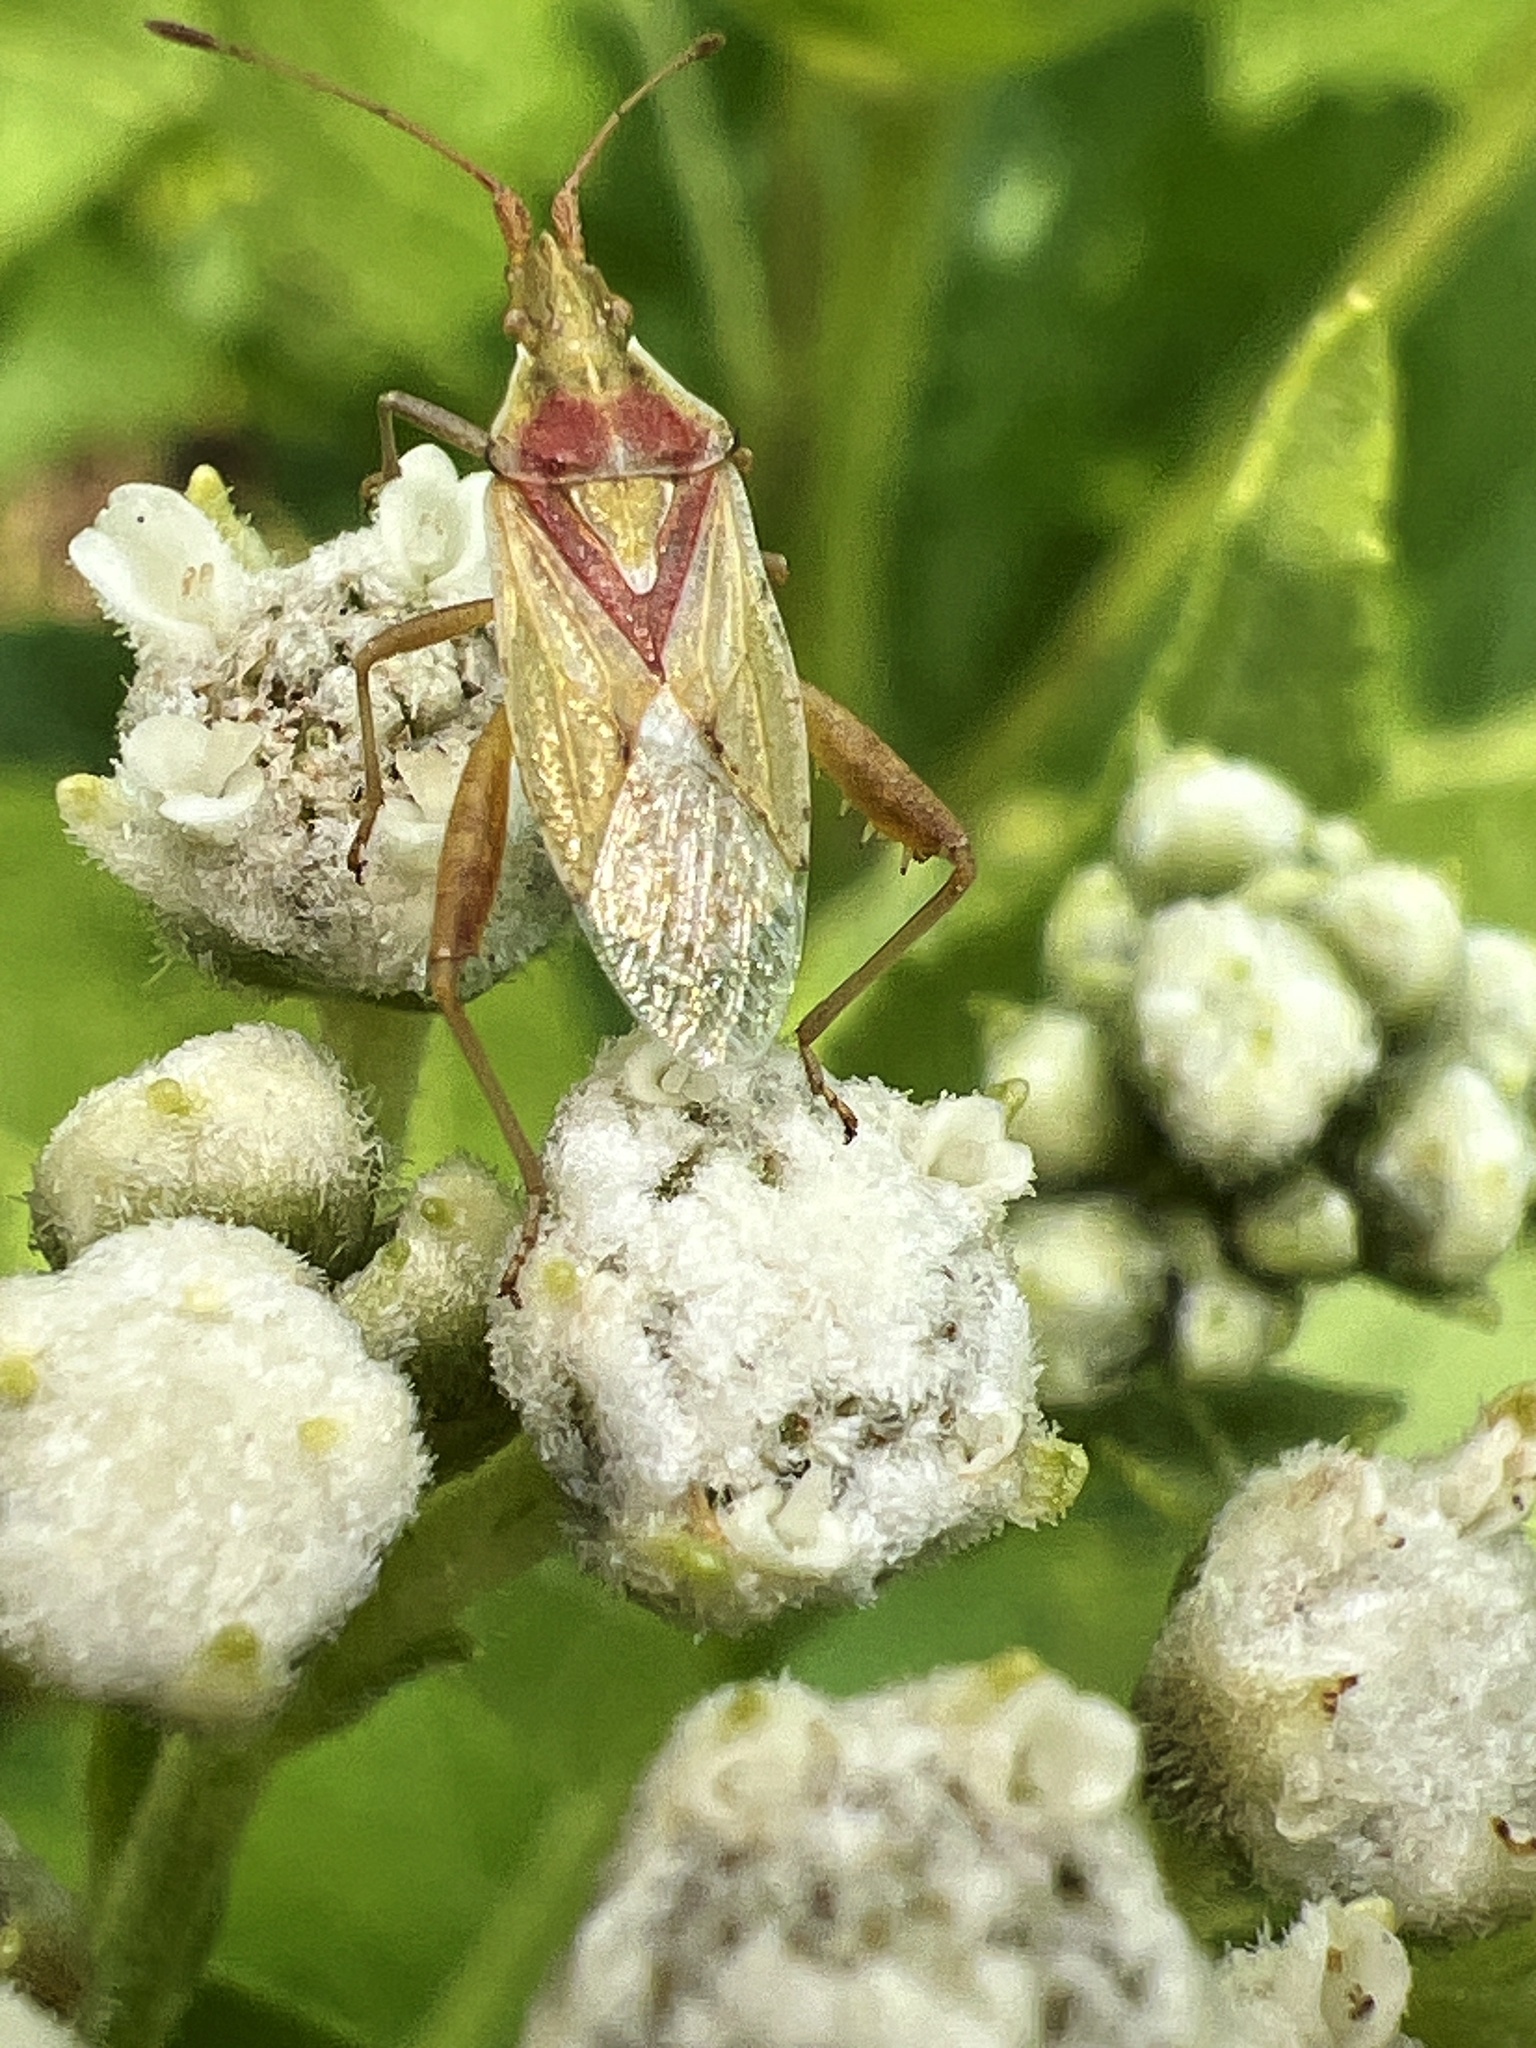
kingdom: Animalia
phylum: Arthropoda
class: Insecta
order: Hemiptera
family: Rhopalidae
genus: Harmostes
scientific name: Harmostes reflexulus
